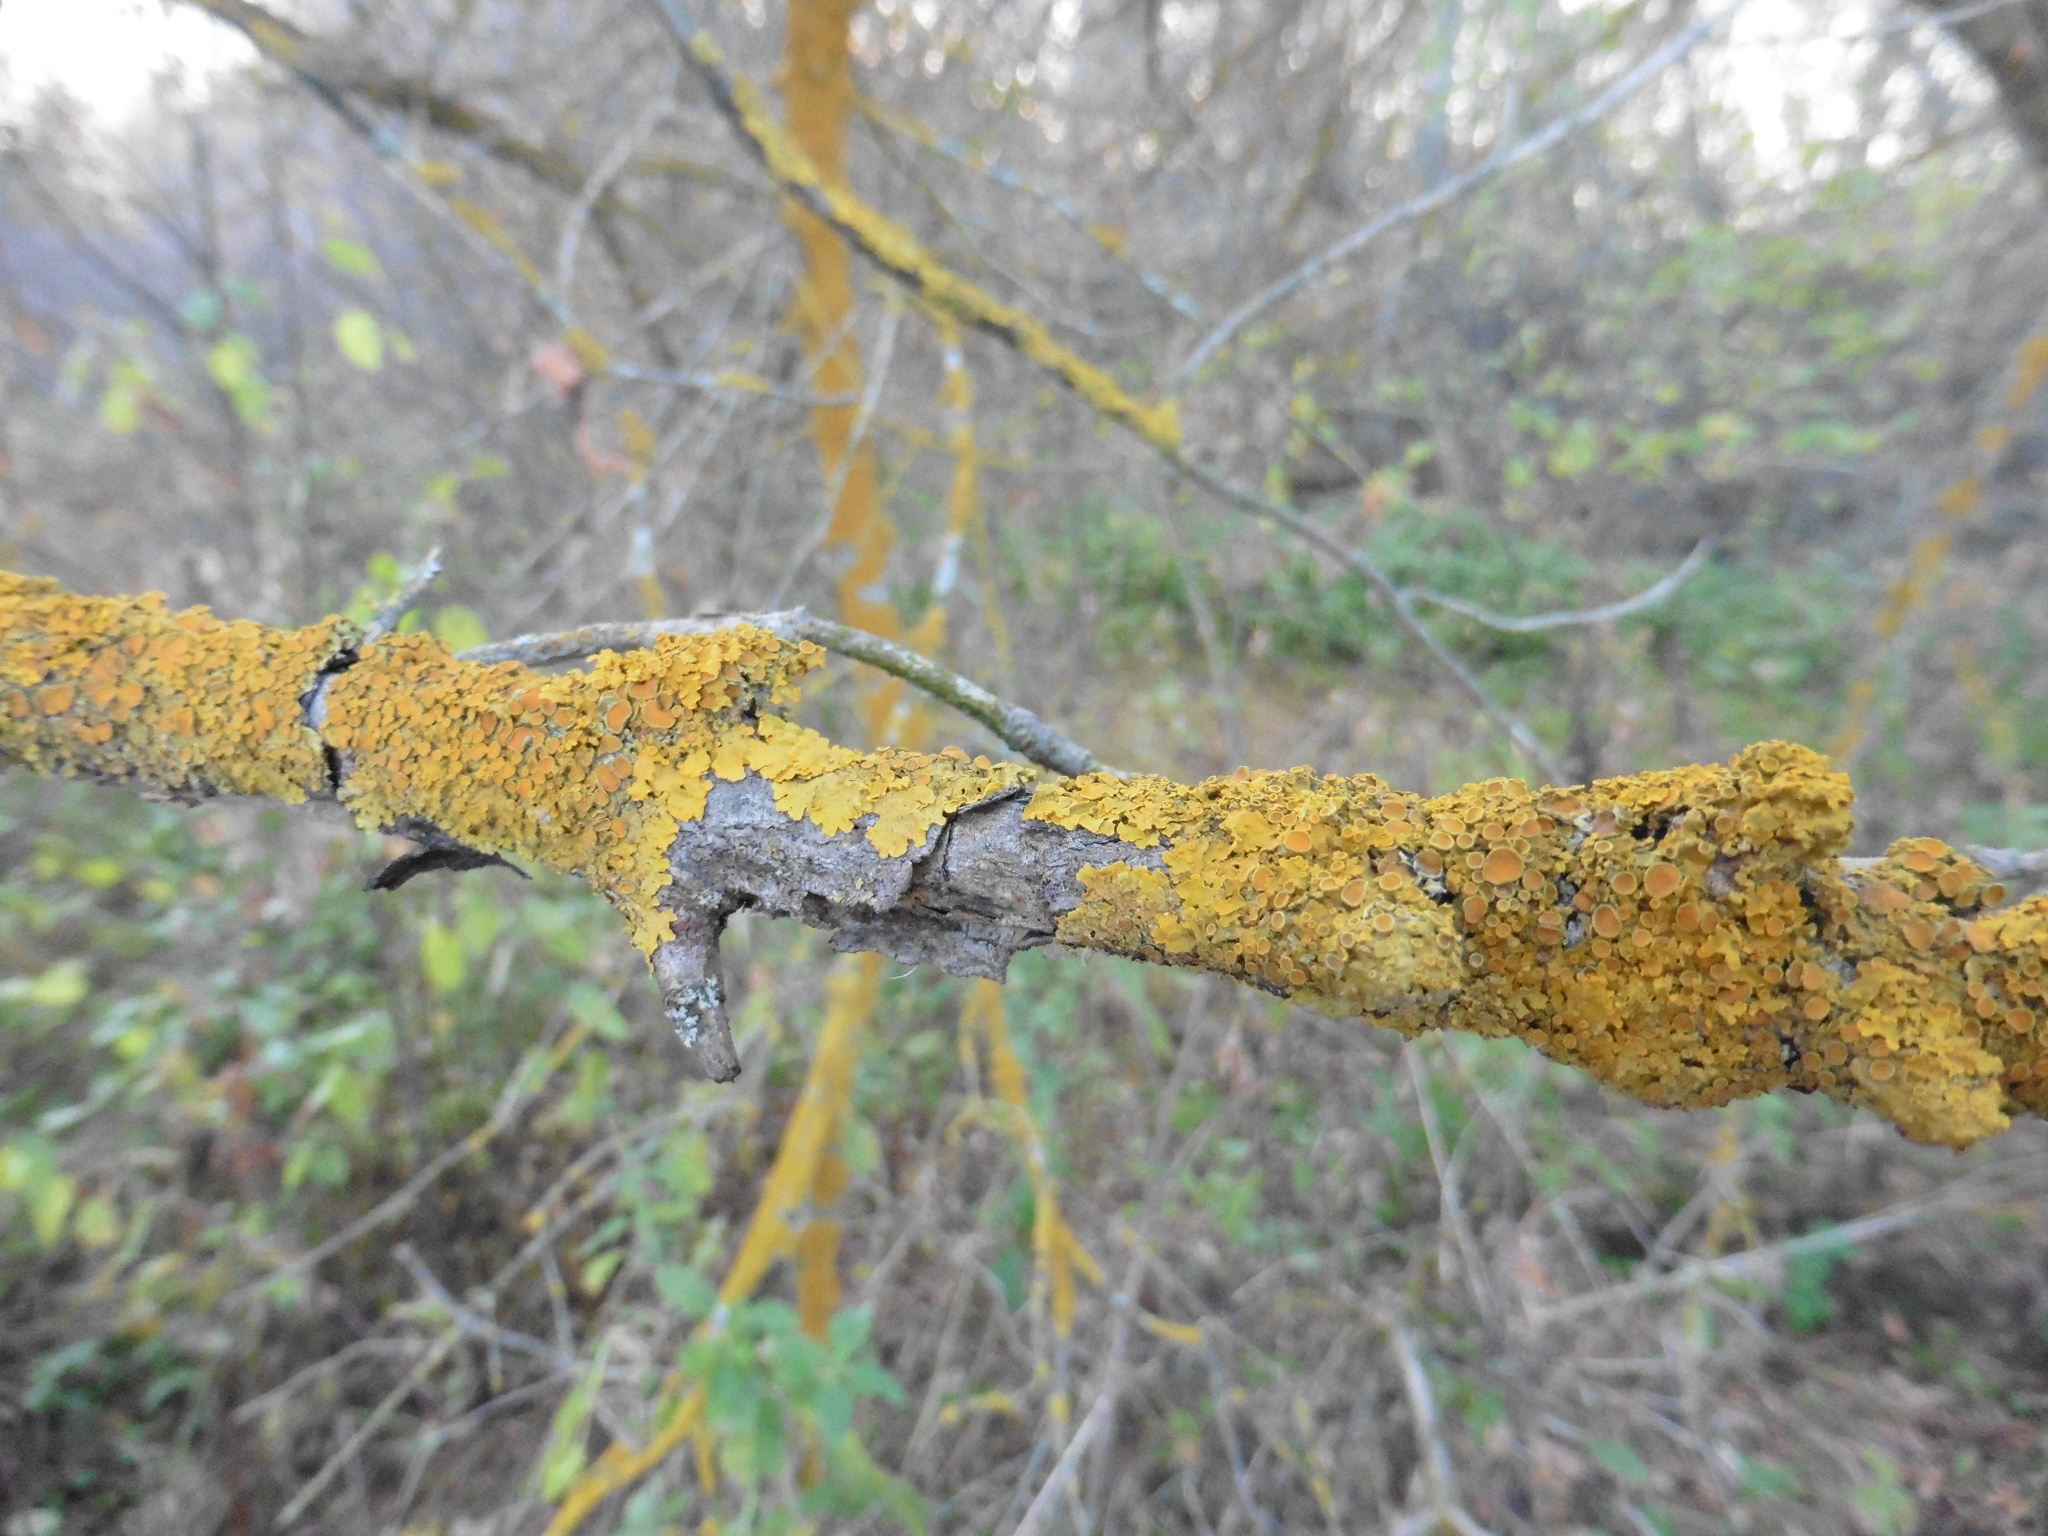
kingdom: Fungi
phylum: Ascomycota
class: Lecanoromycetes
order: Teloschistales
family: Teloschistaceae
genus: Xanthoria
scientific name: Xanthoria parietina
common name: Common orange lichen
